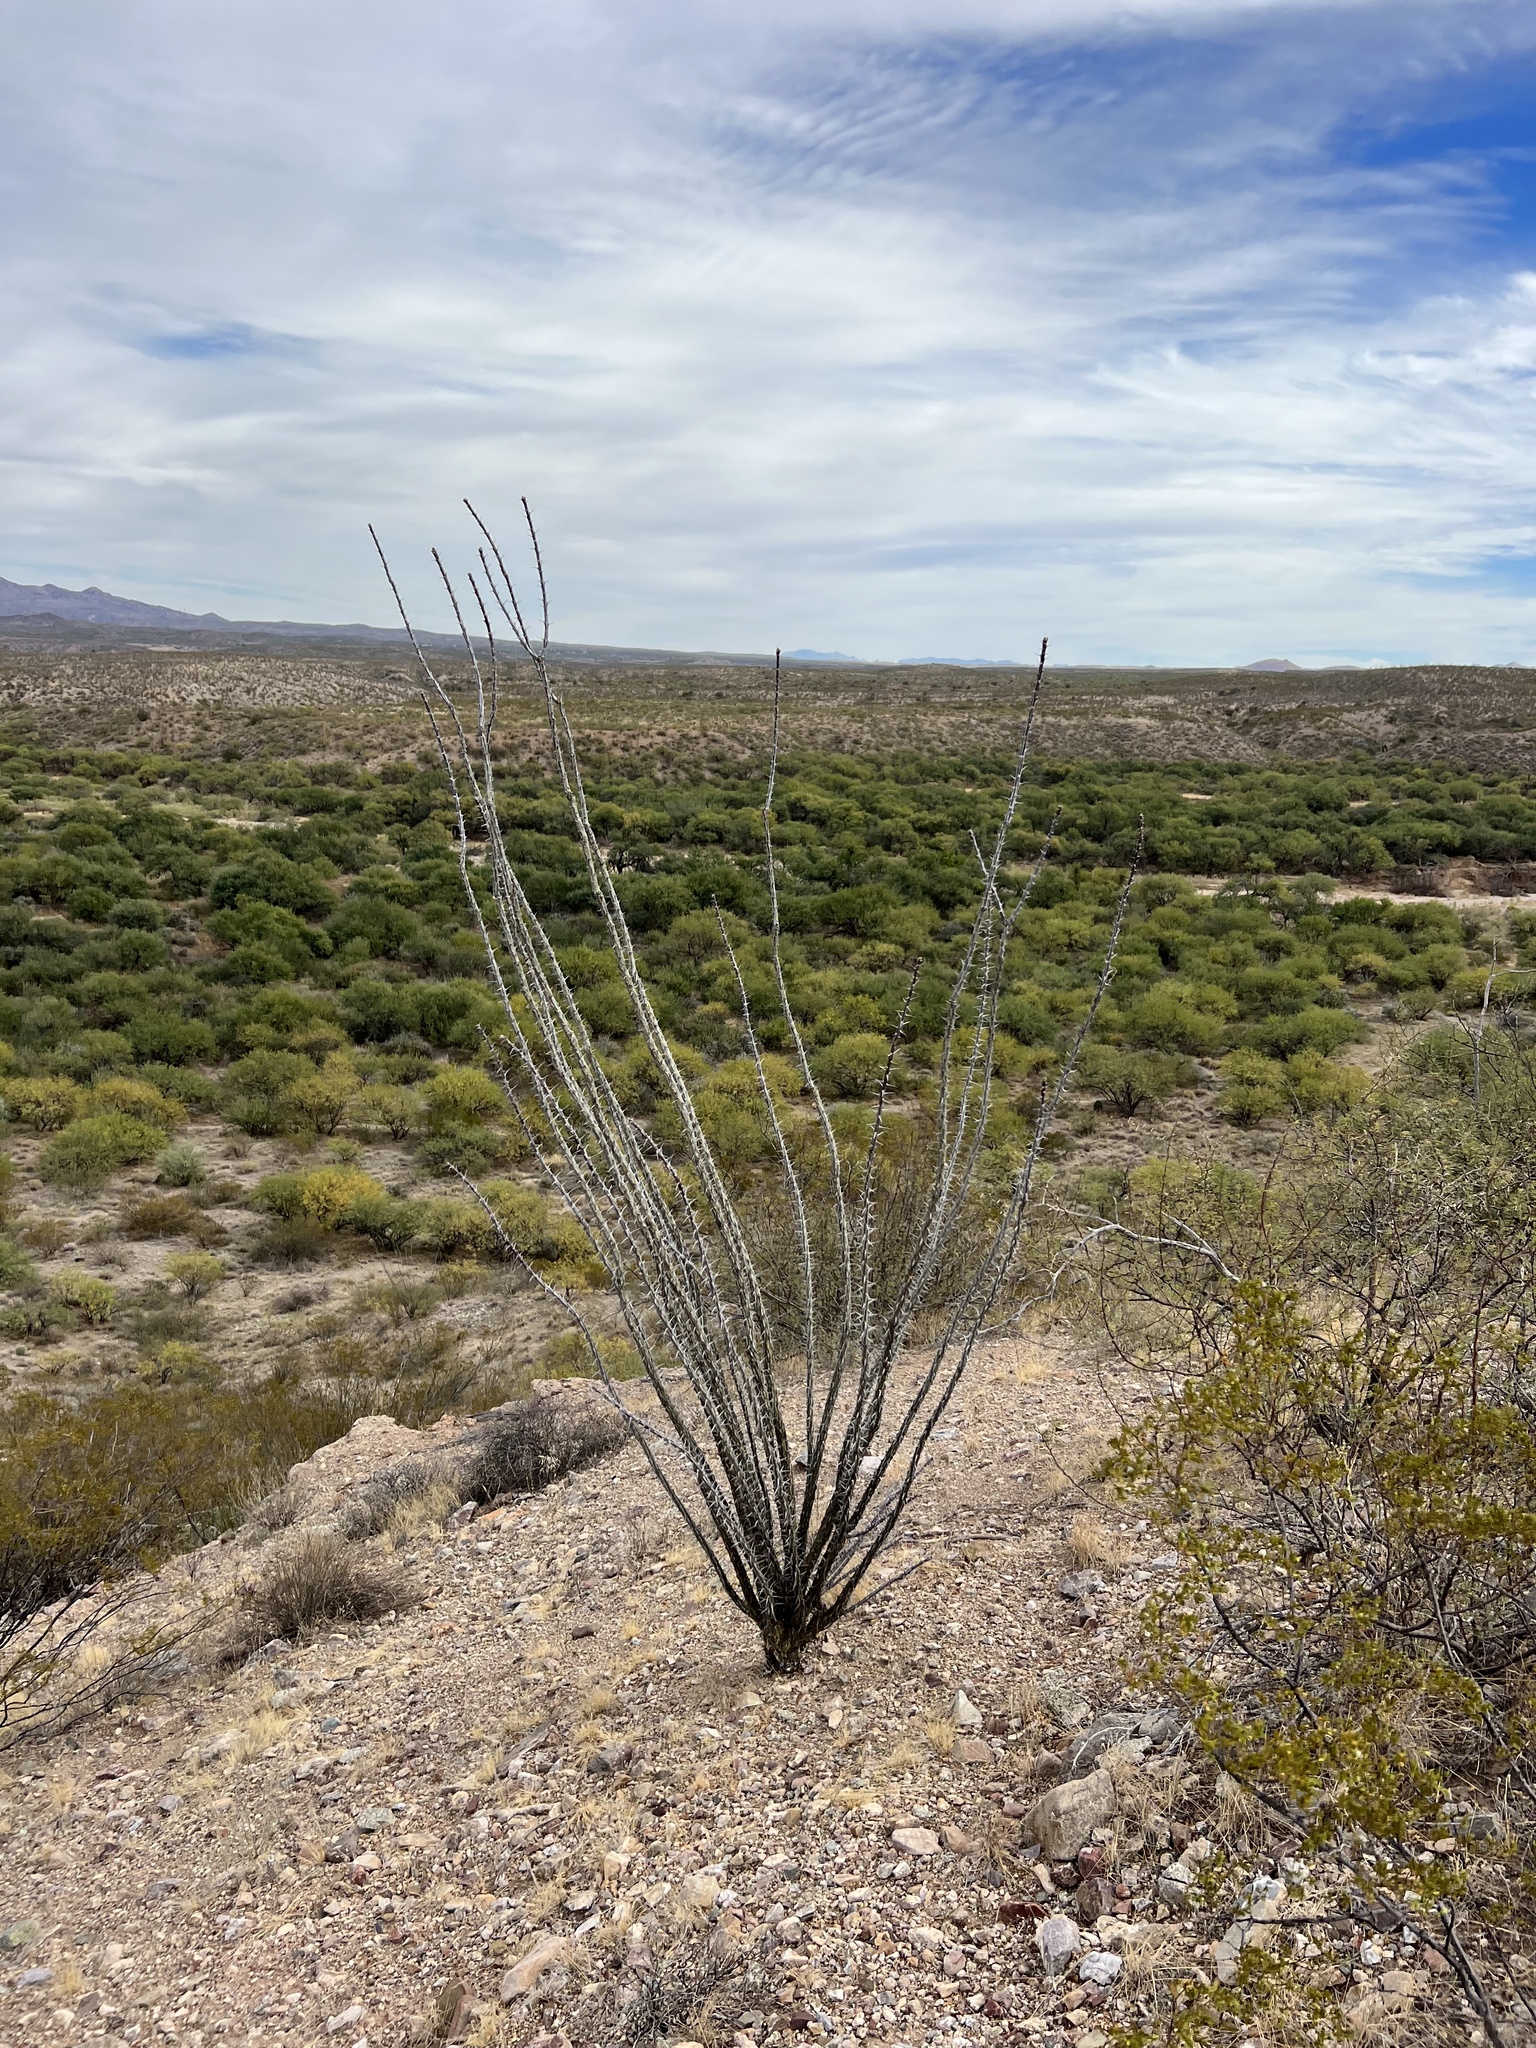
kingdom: Plantae
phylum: Tracheophyta
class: Magnoliopsida
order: Ericales
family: Fouquieriaceae
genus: Fouquieria
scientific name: Fouquieria splendens
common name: Vine-cactus
